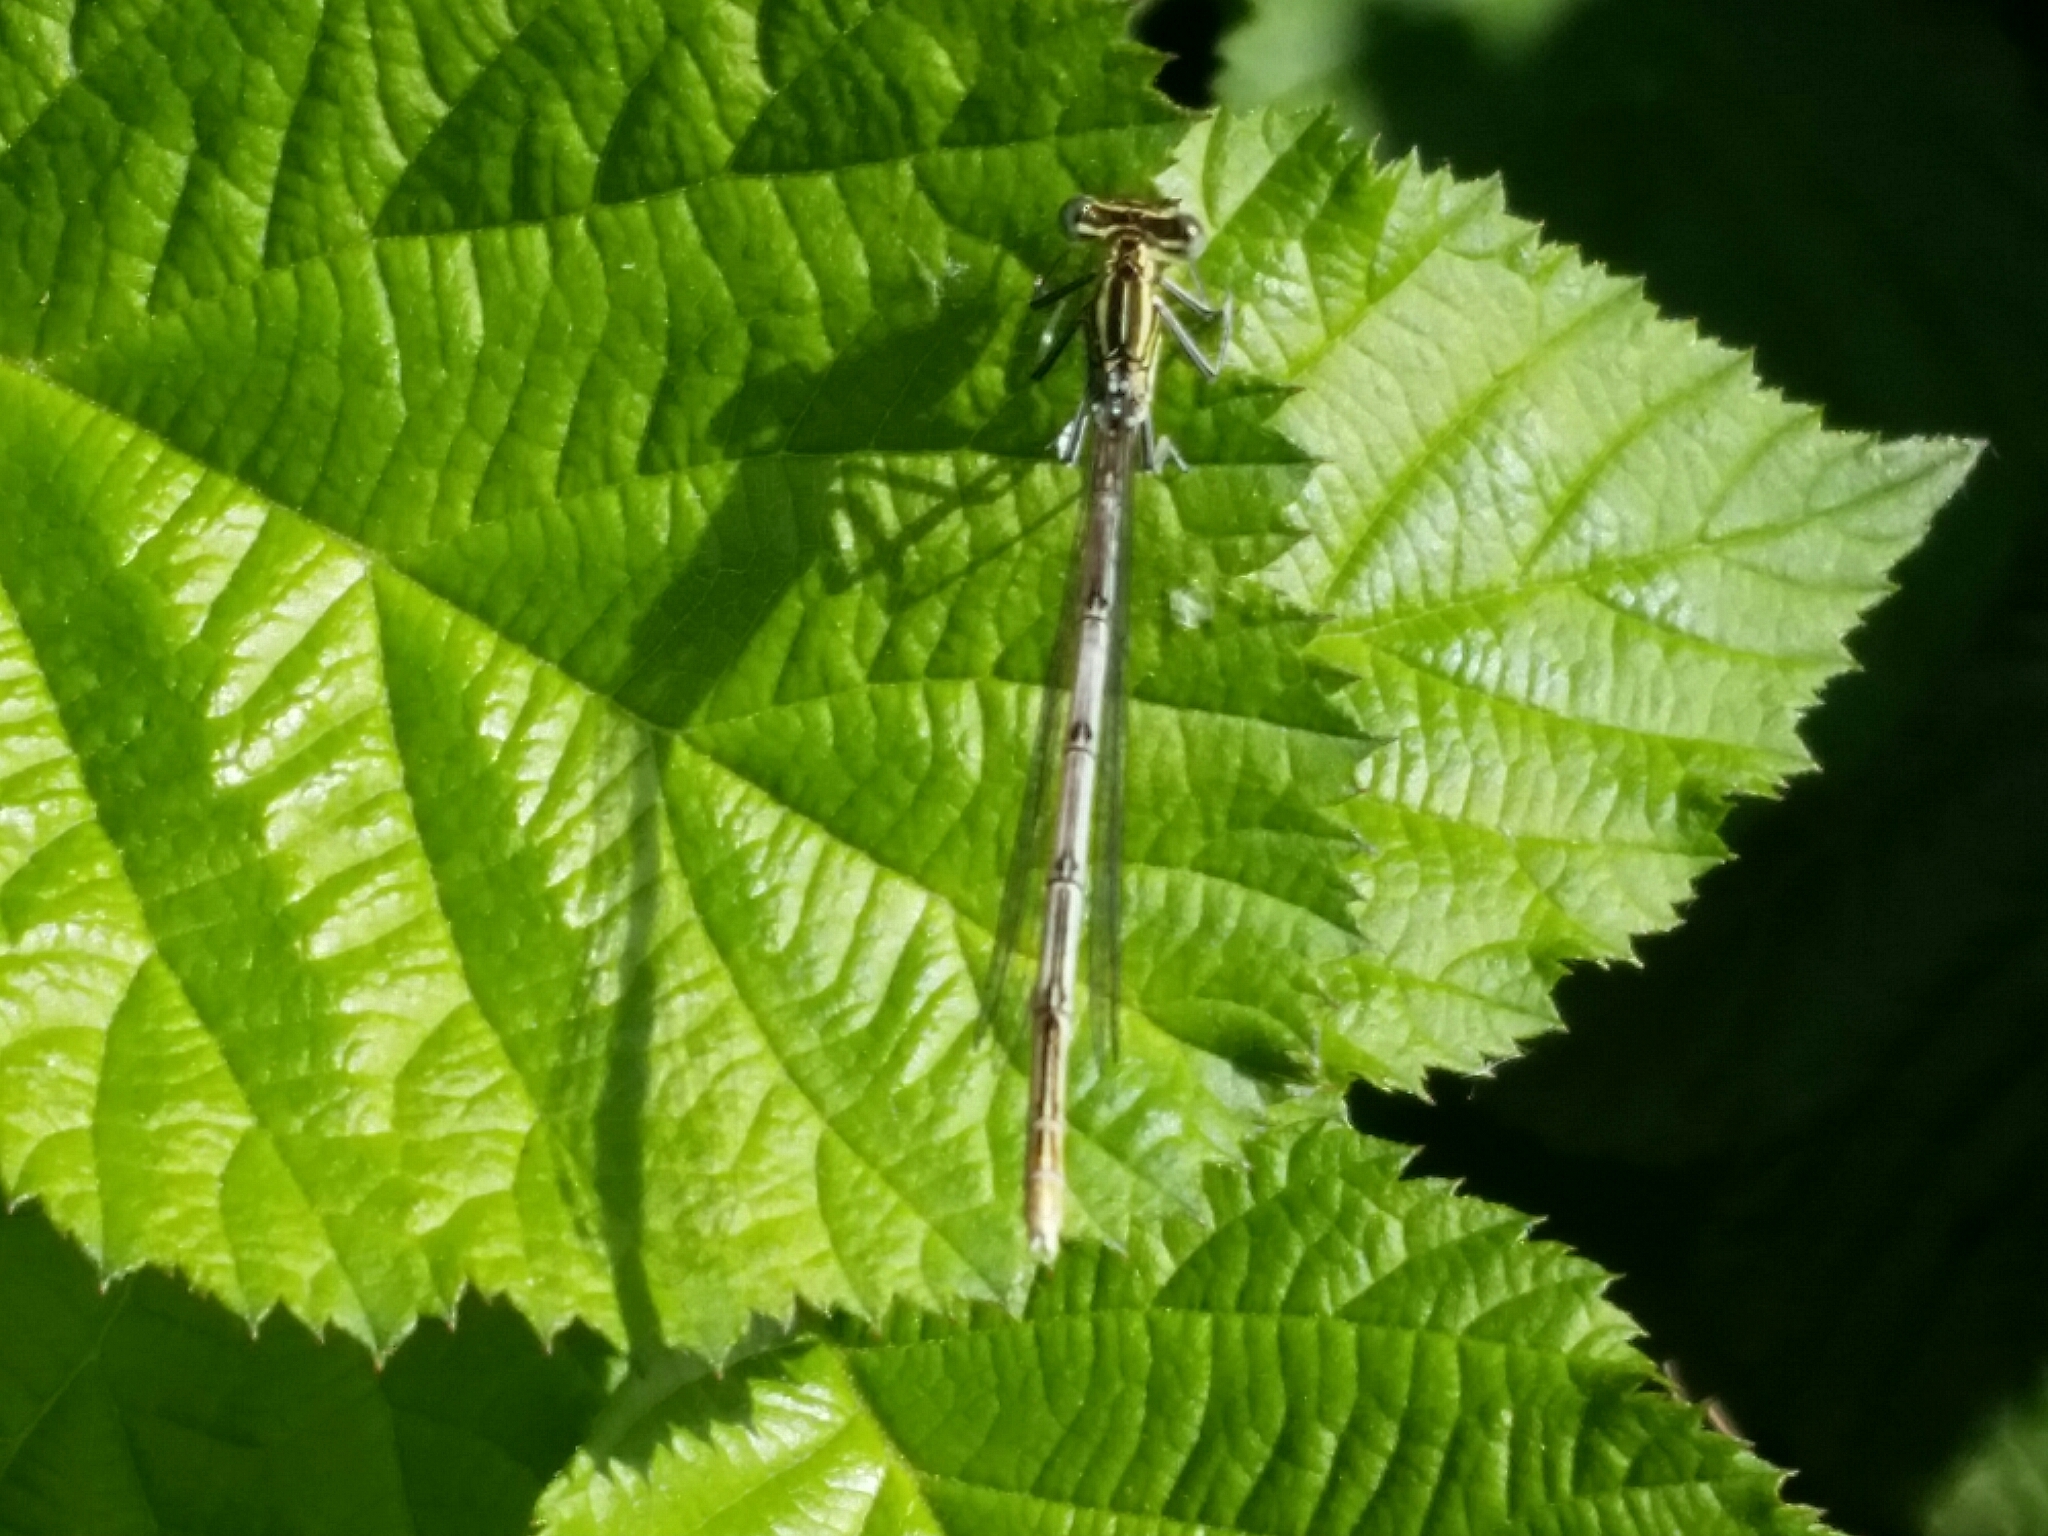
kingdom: Animalia
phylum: Arthropoda
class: Insecta
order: Odonata
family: Platycnemididae
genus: Platycnemis
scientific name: Platycnemis pennipes
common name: White-legged damselfly
